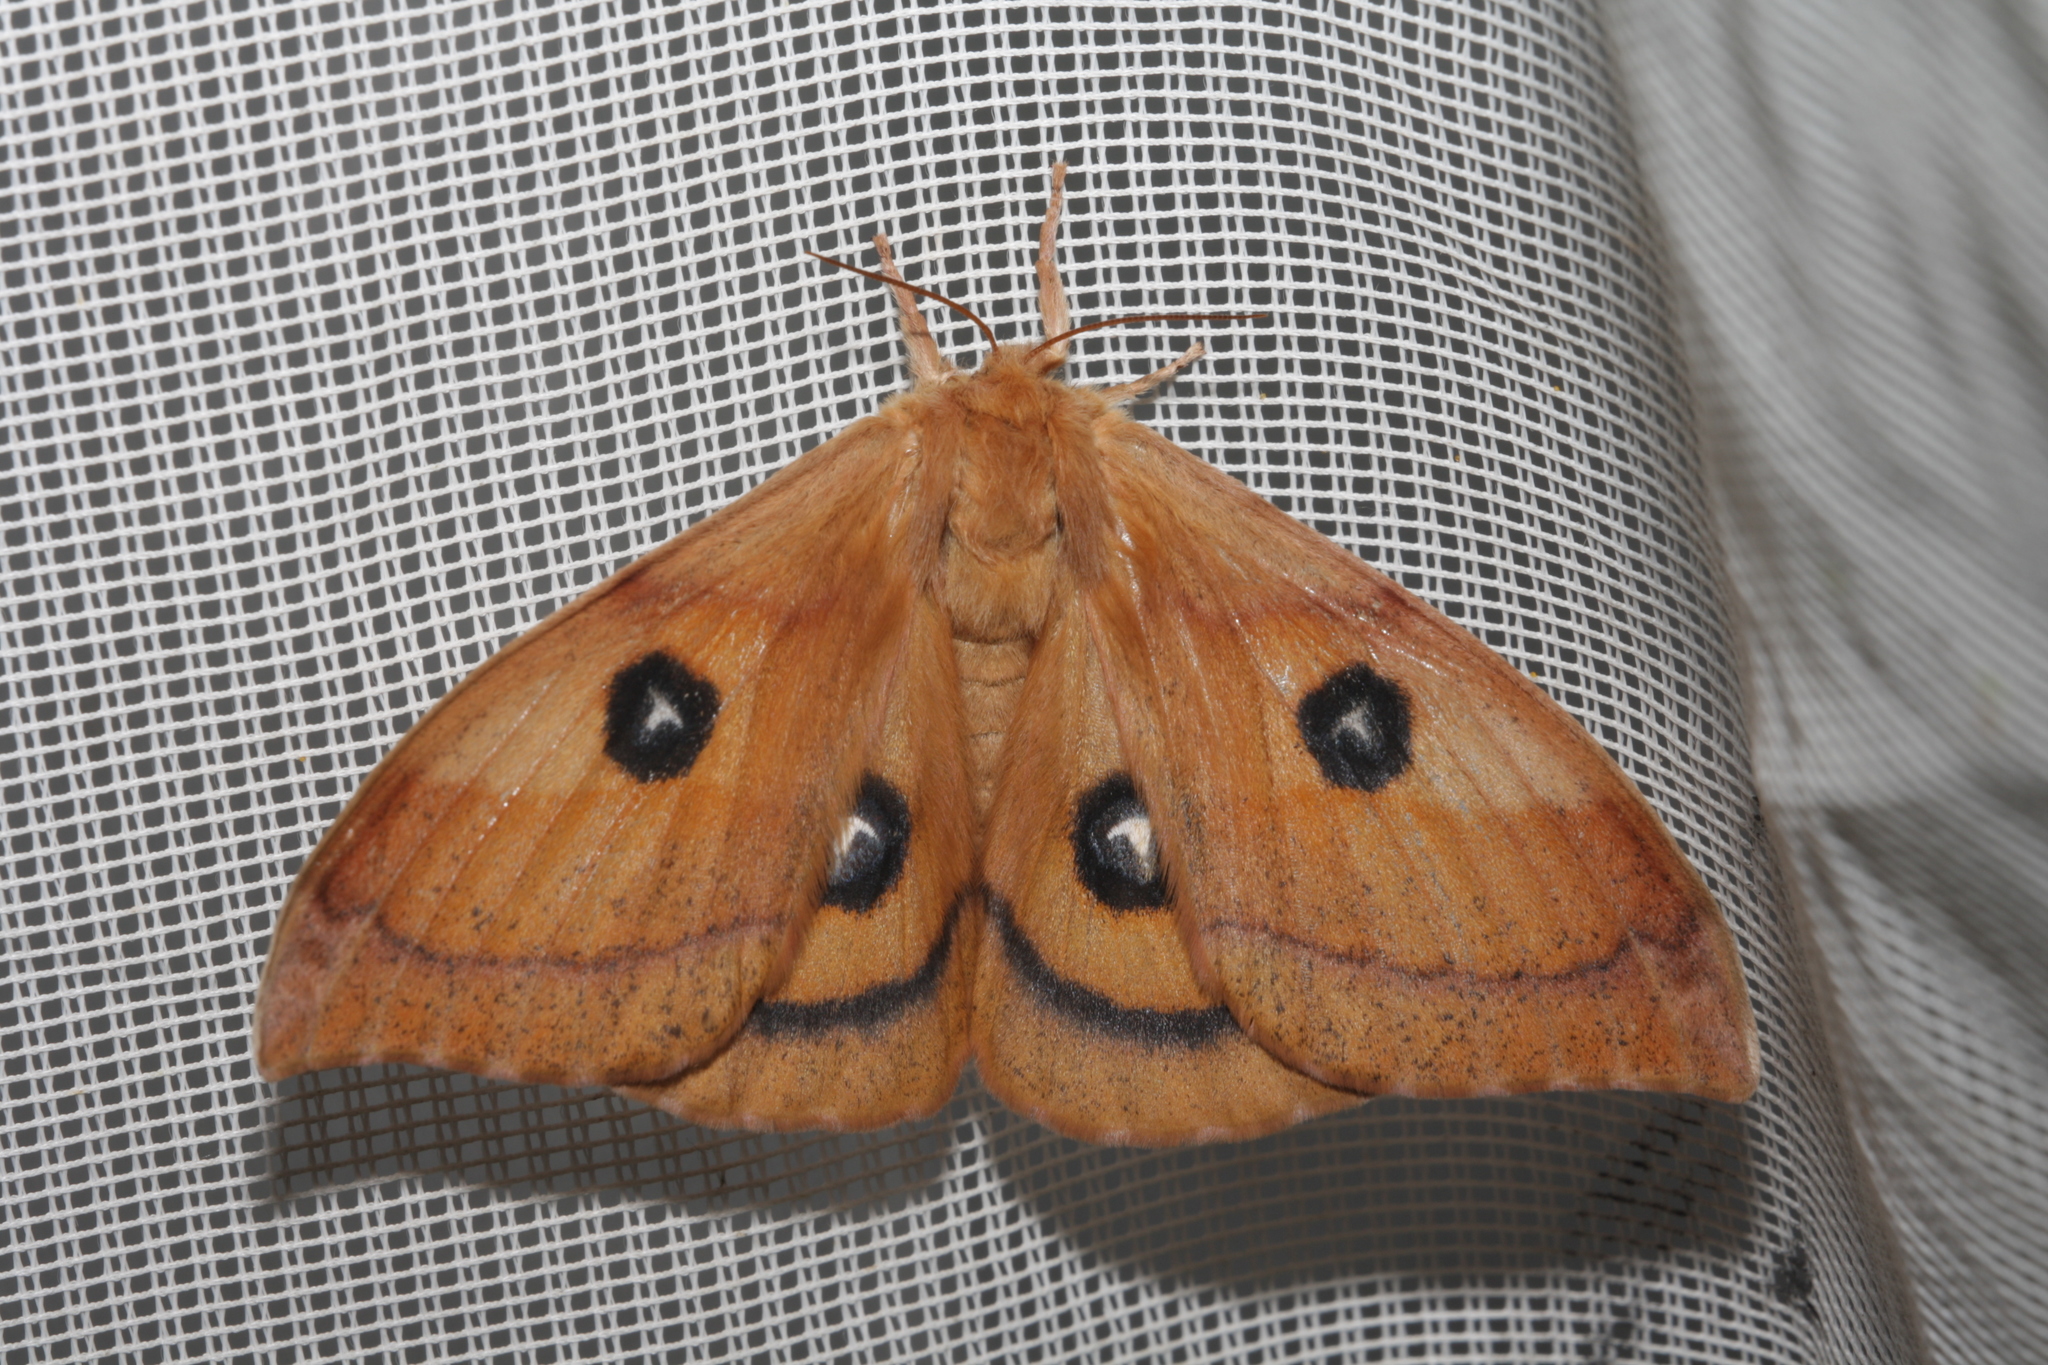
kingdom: Animalia
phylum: Arthropoda
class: Insecta
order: Lepidoptera
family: Saturniidae
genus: Aglia
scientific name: Aglia tau
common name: Tau emperor
